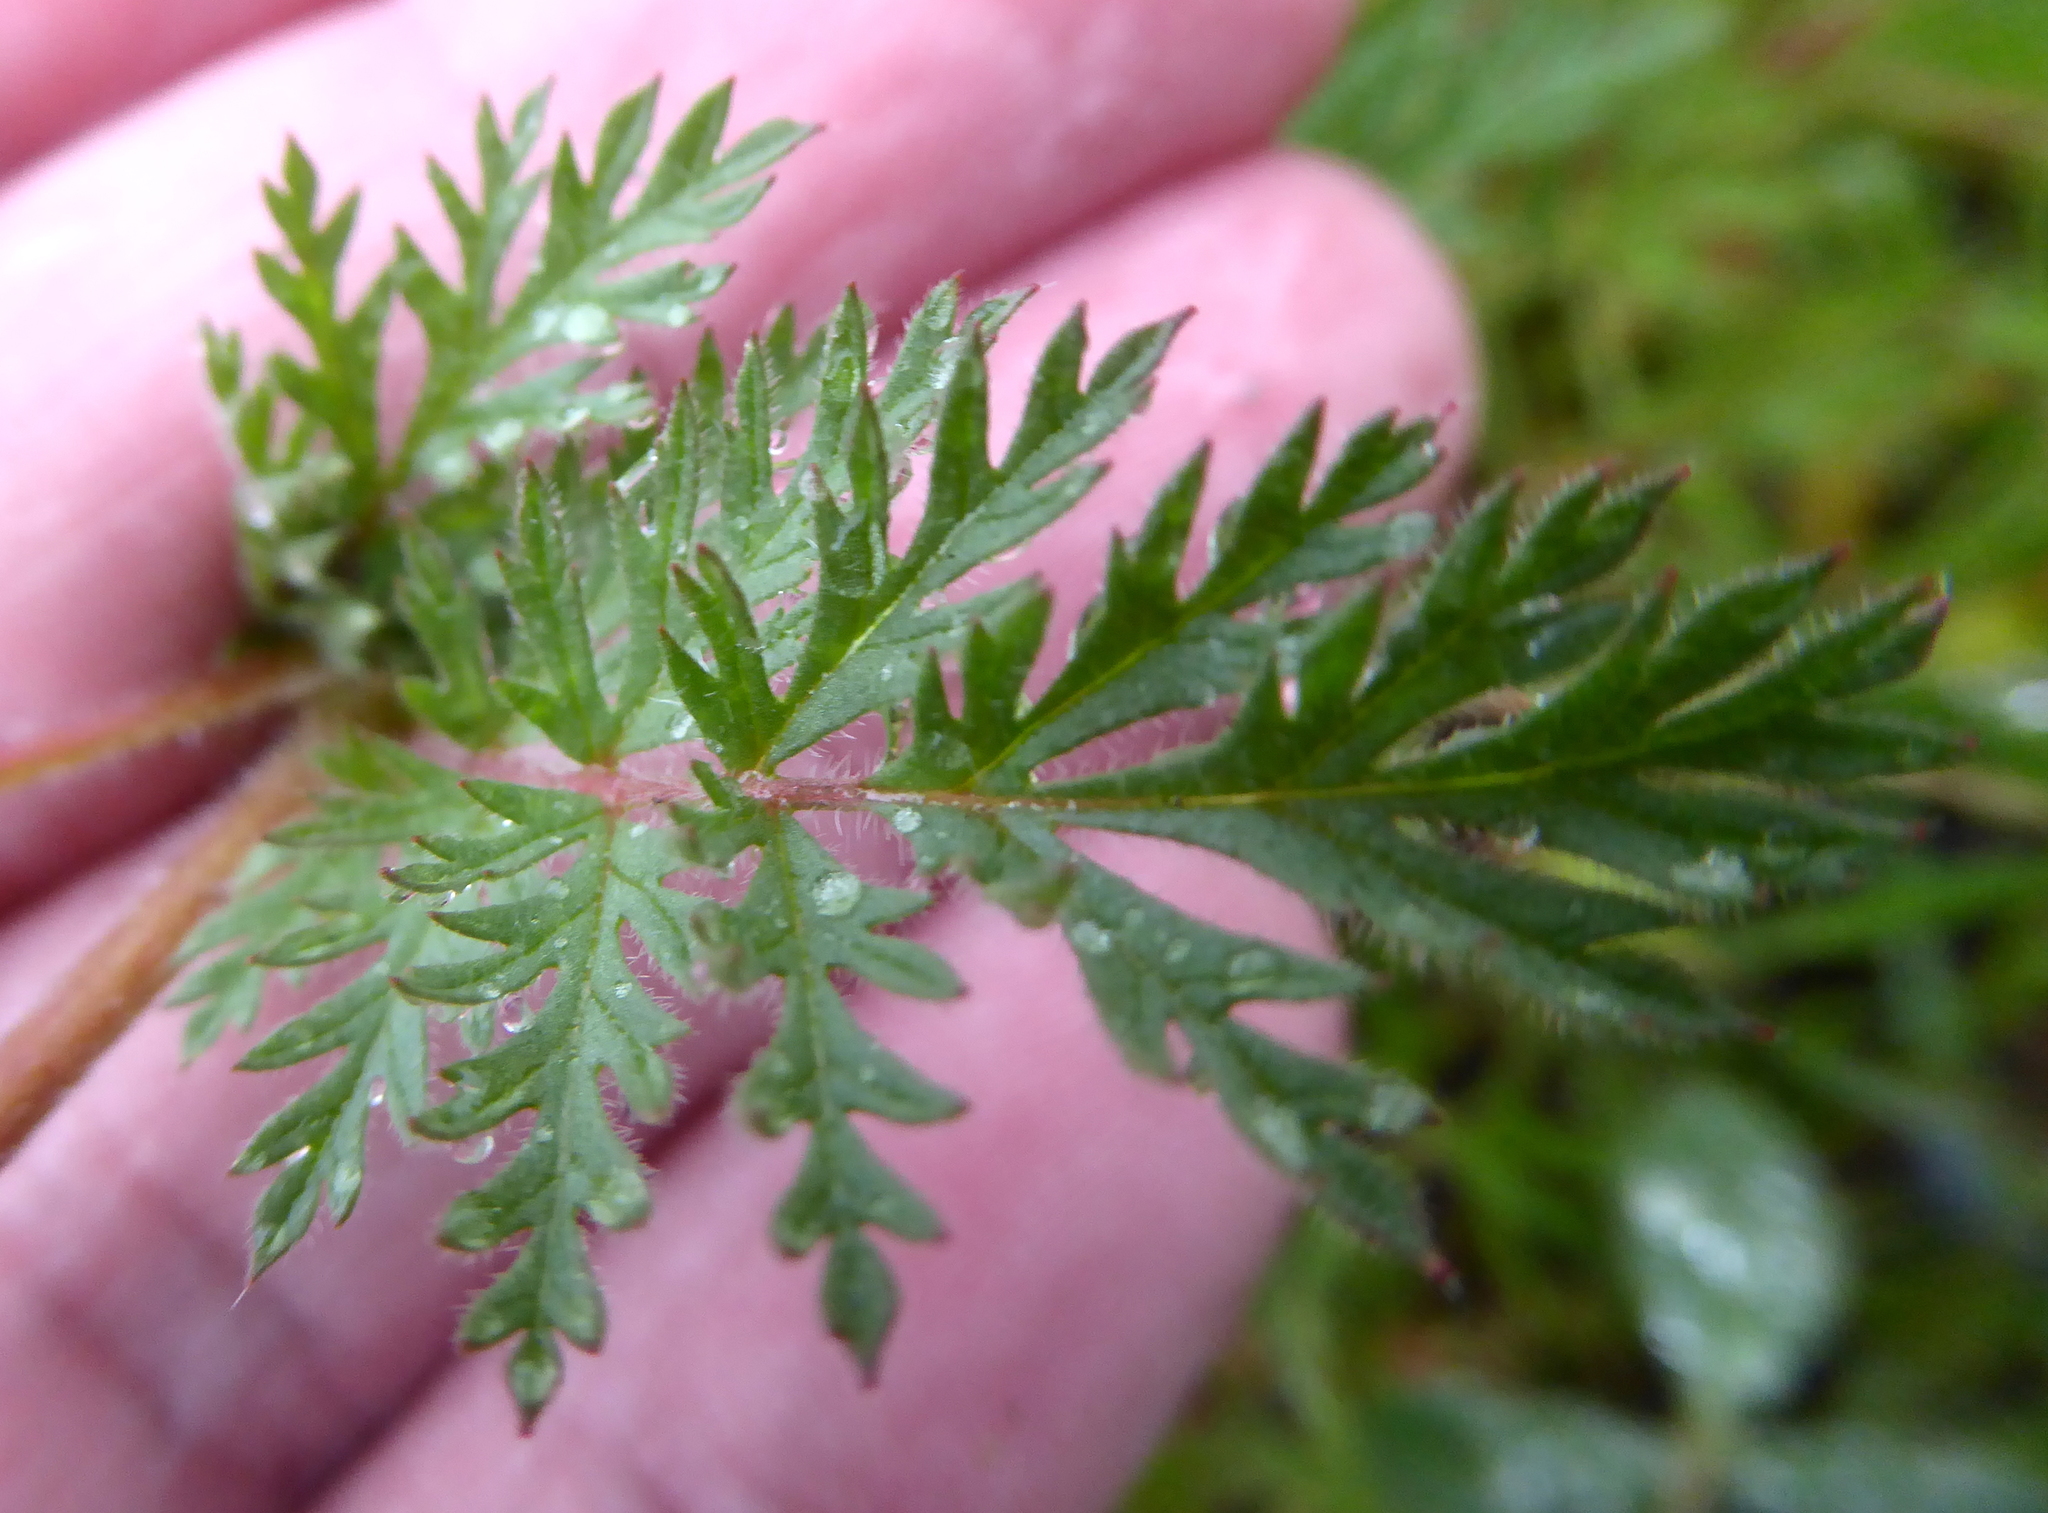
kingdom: Plantae
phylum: Tracheophyta
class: Magnoliopsida
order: Geraniales
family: Geraniaceae
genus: Erodium
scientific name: Erodium cicutarium
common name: Common stork's-bill
